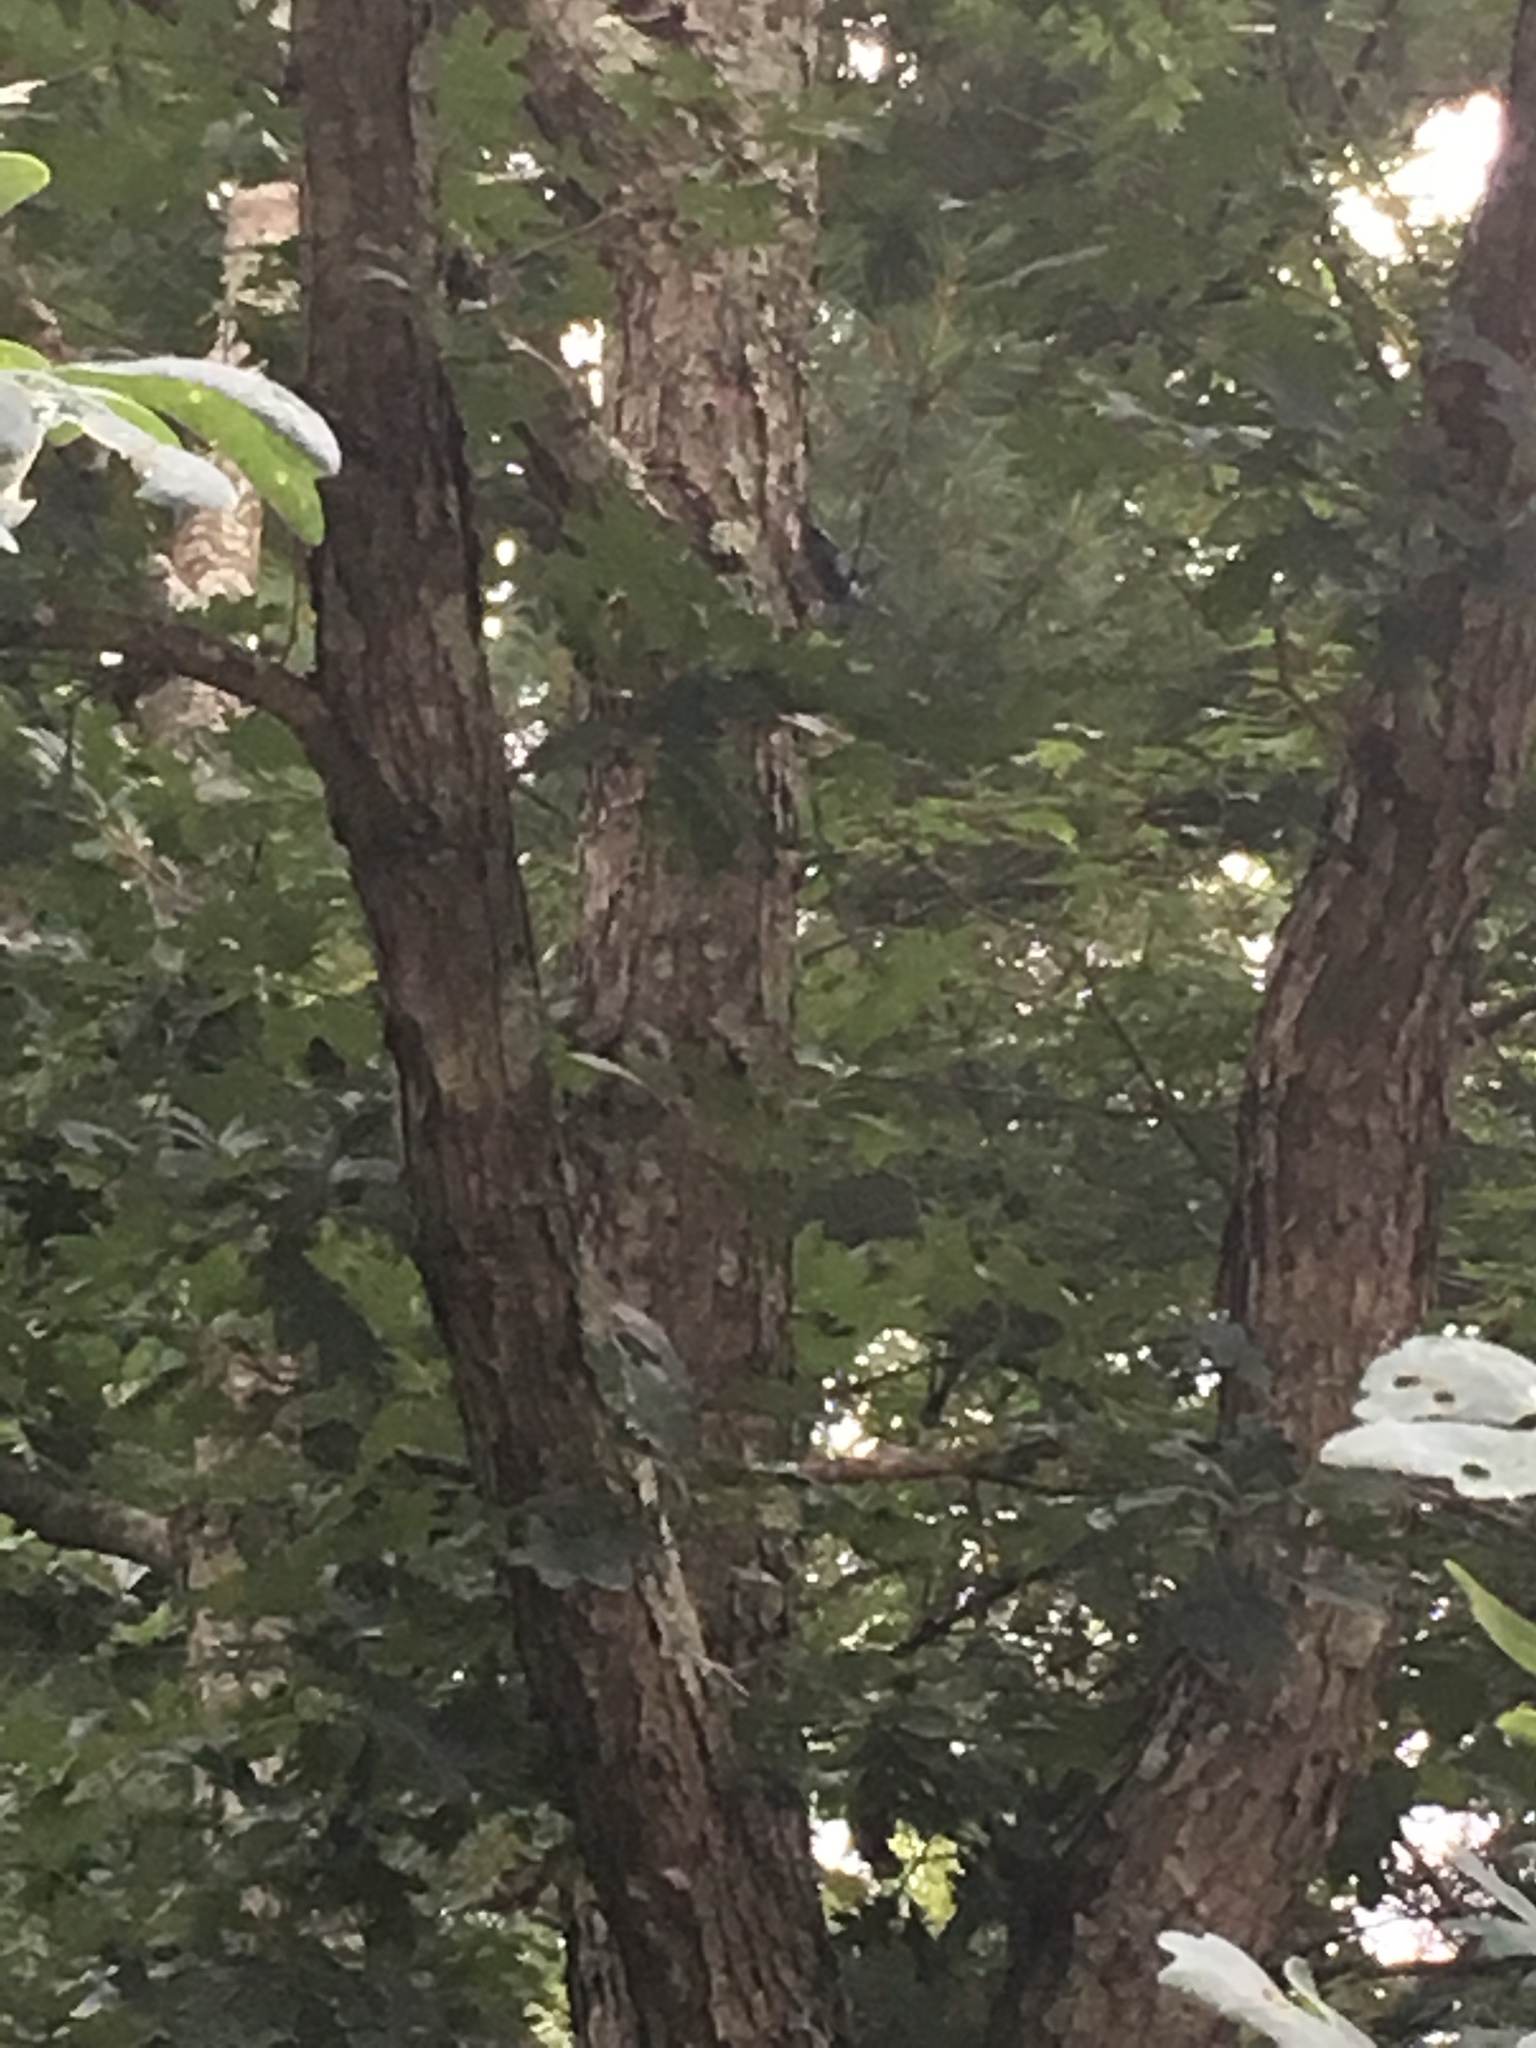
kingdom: Animalia
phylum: Chordata
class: Aves
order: Passeriformes
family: Sittidae
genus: Sitta
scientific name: Sitta carolinensis
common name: White-breasted nuthatch
